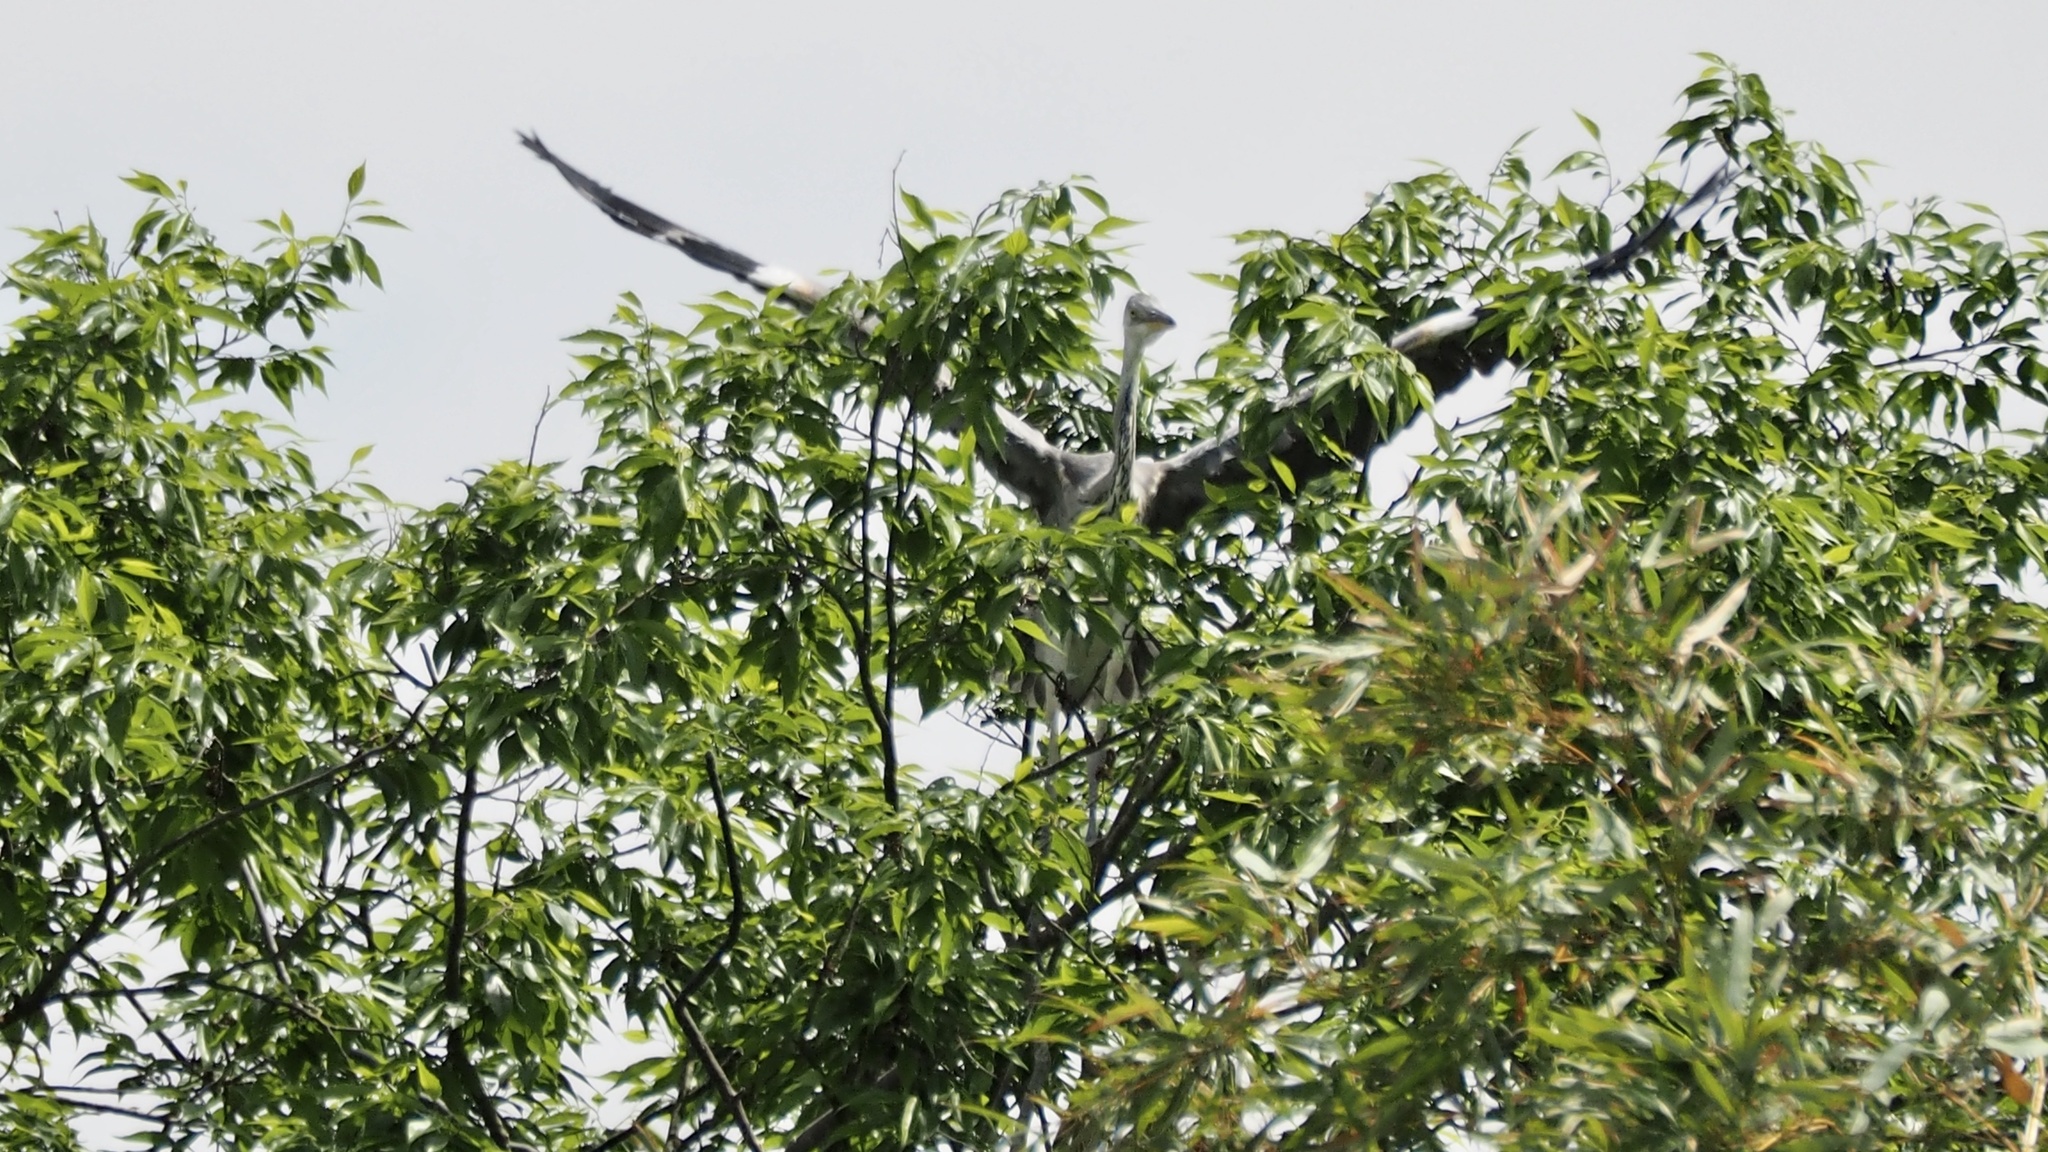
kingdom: Animalia
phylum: Chordata
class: Aves
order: Pelecaniformes
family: Ardeidae
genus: Ardea
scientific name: Ardea cinerea
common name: Grey heron
